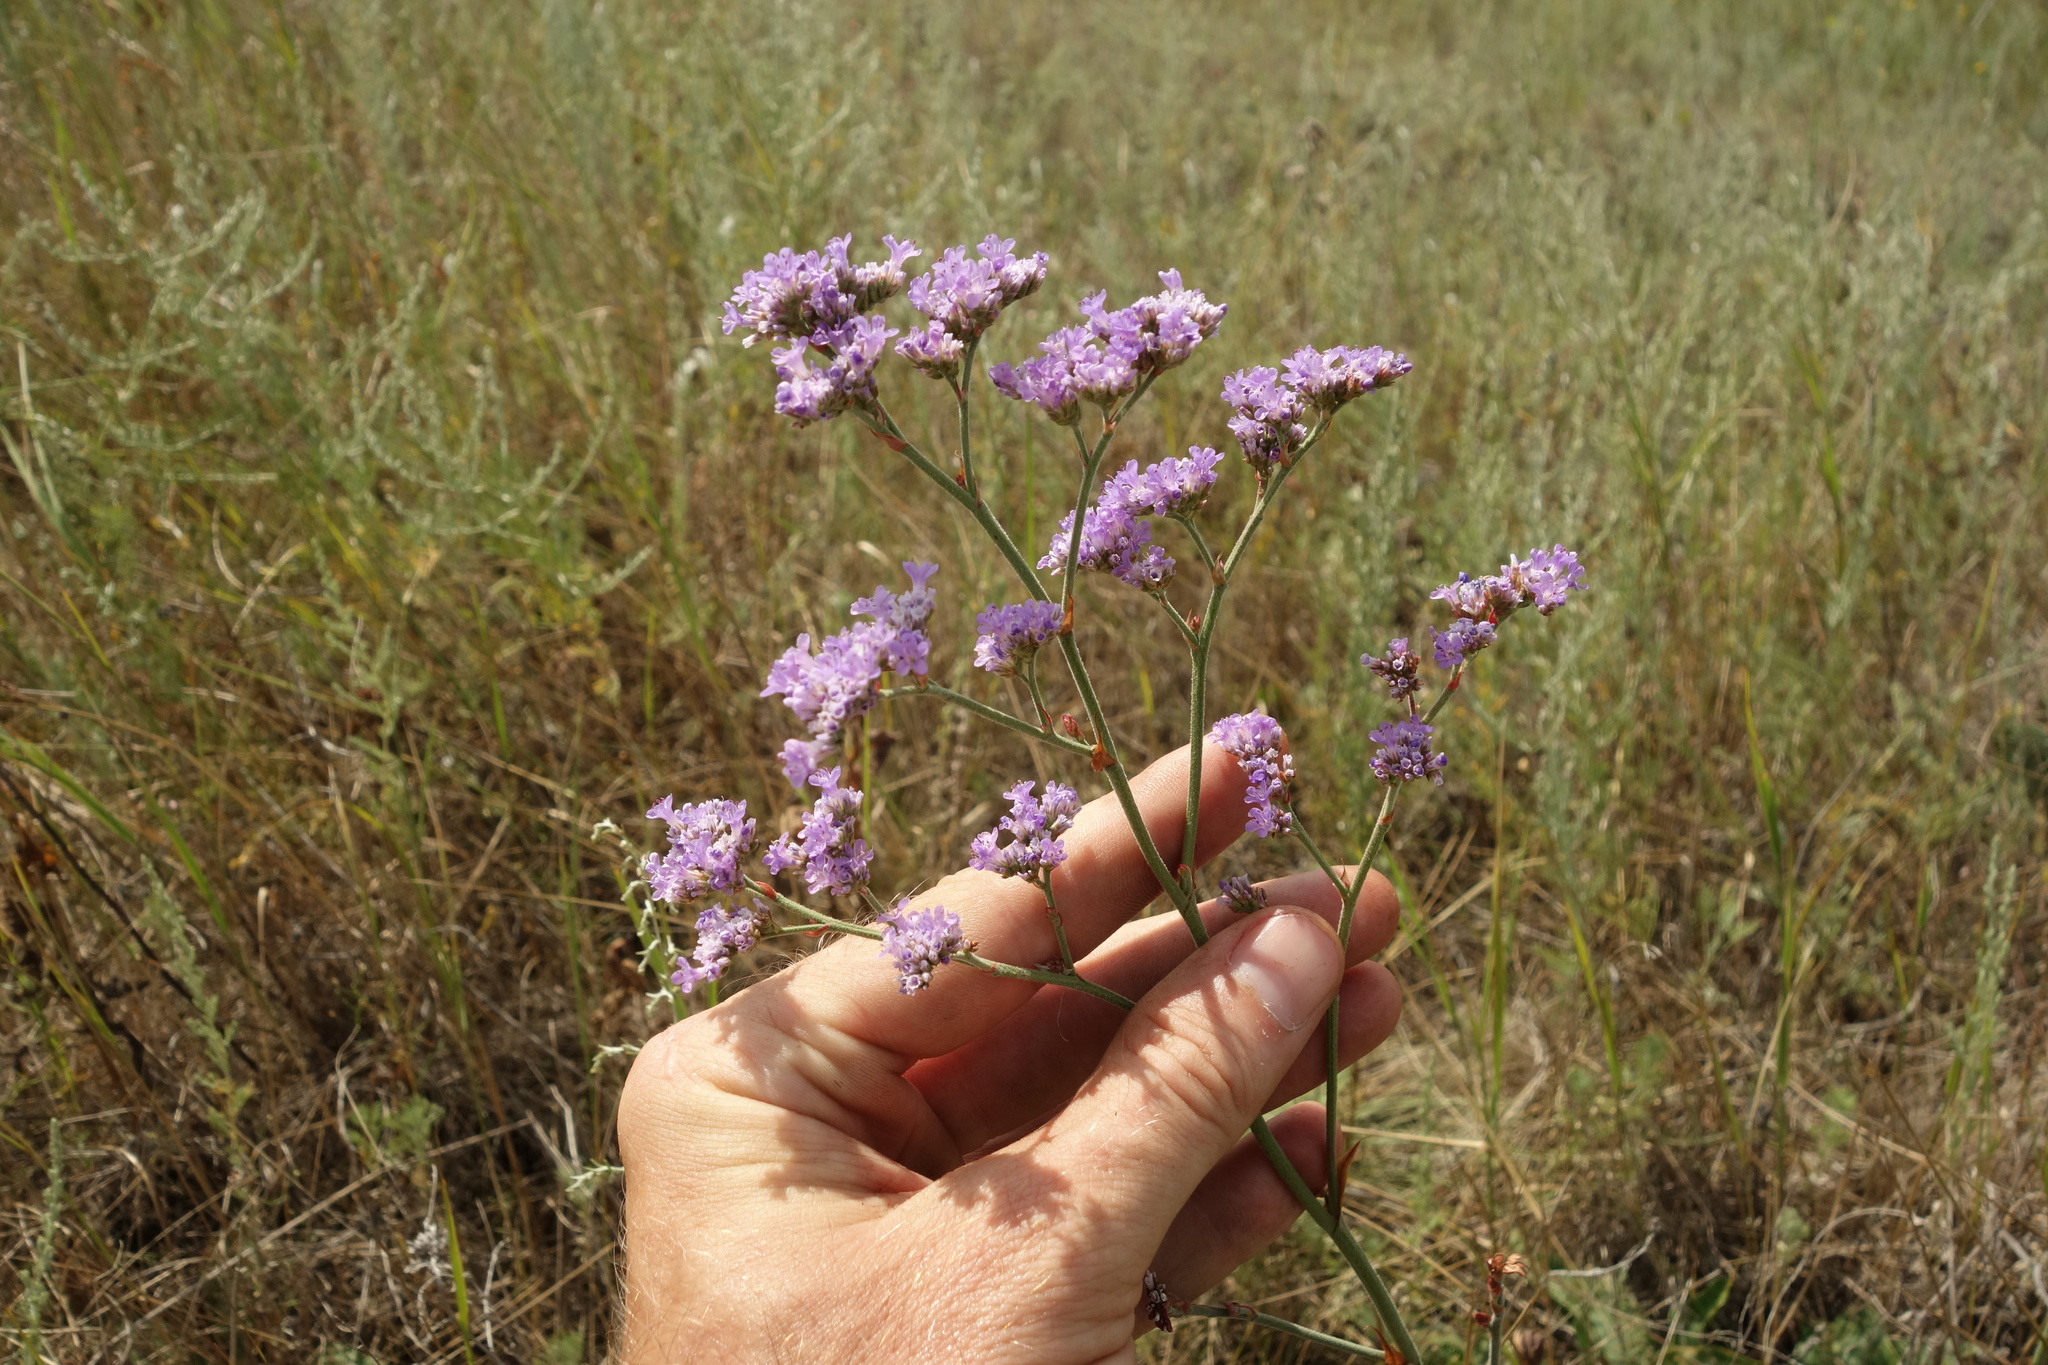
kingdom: Plantae
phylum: Tracheophyta
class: Magnoliopsida
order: Caryophyllales
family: Plumbaginaceae
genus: Limonium
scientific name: Limonium tomentellum
